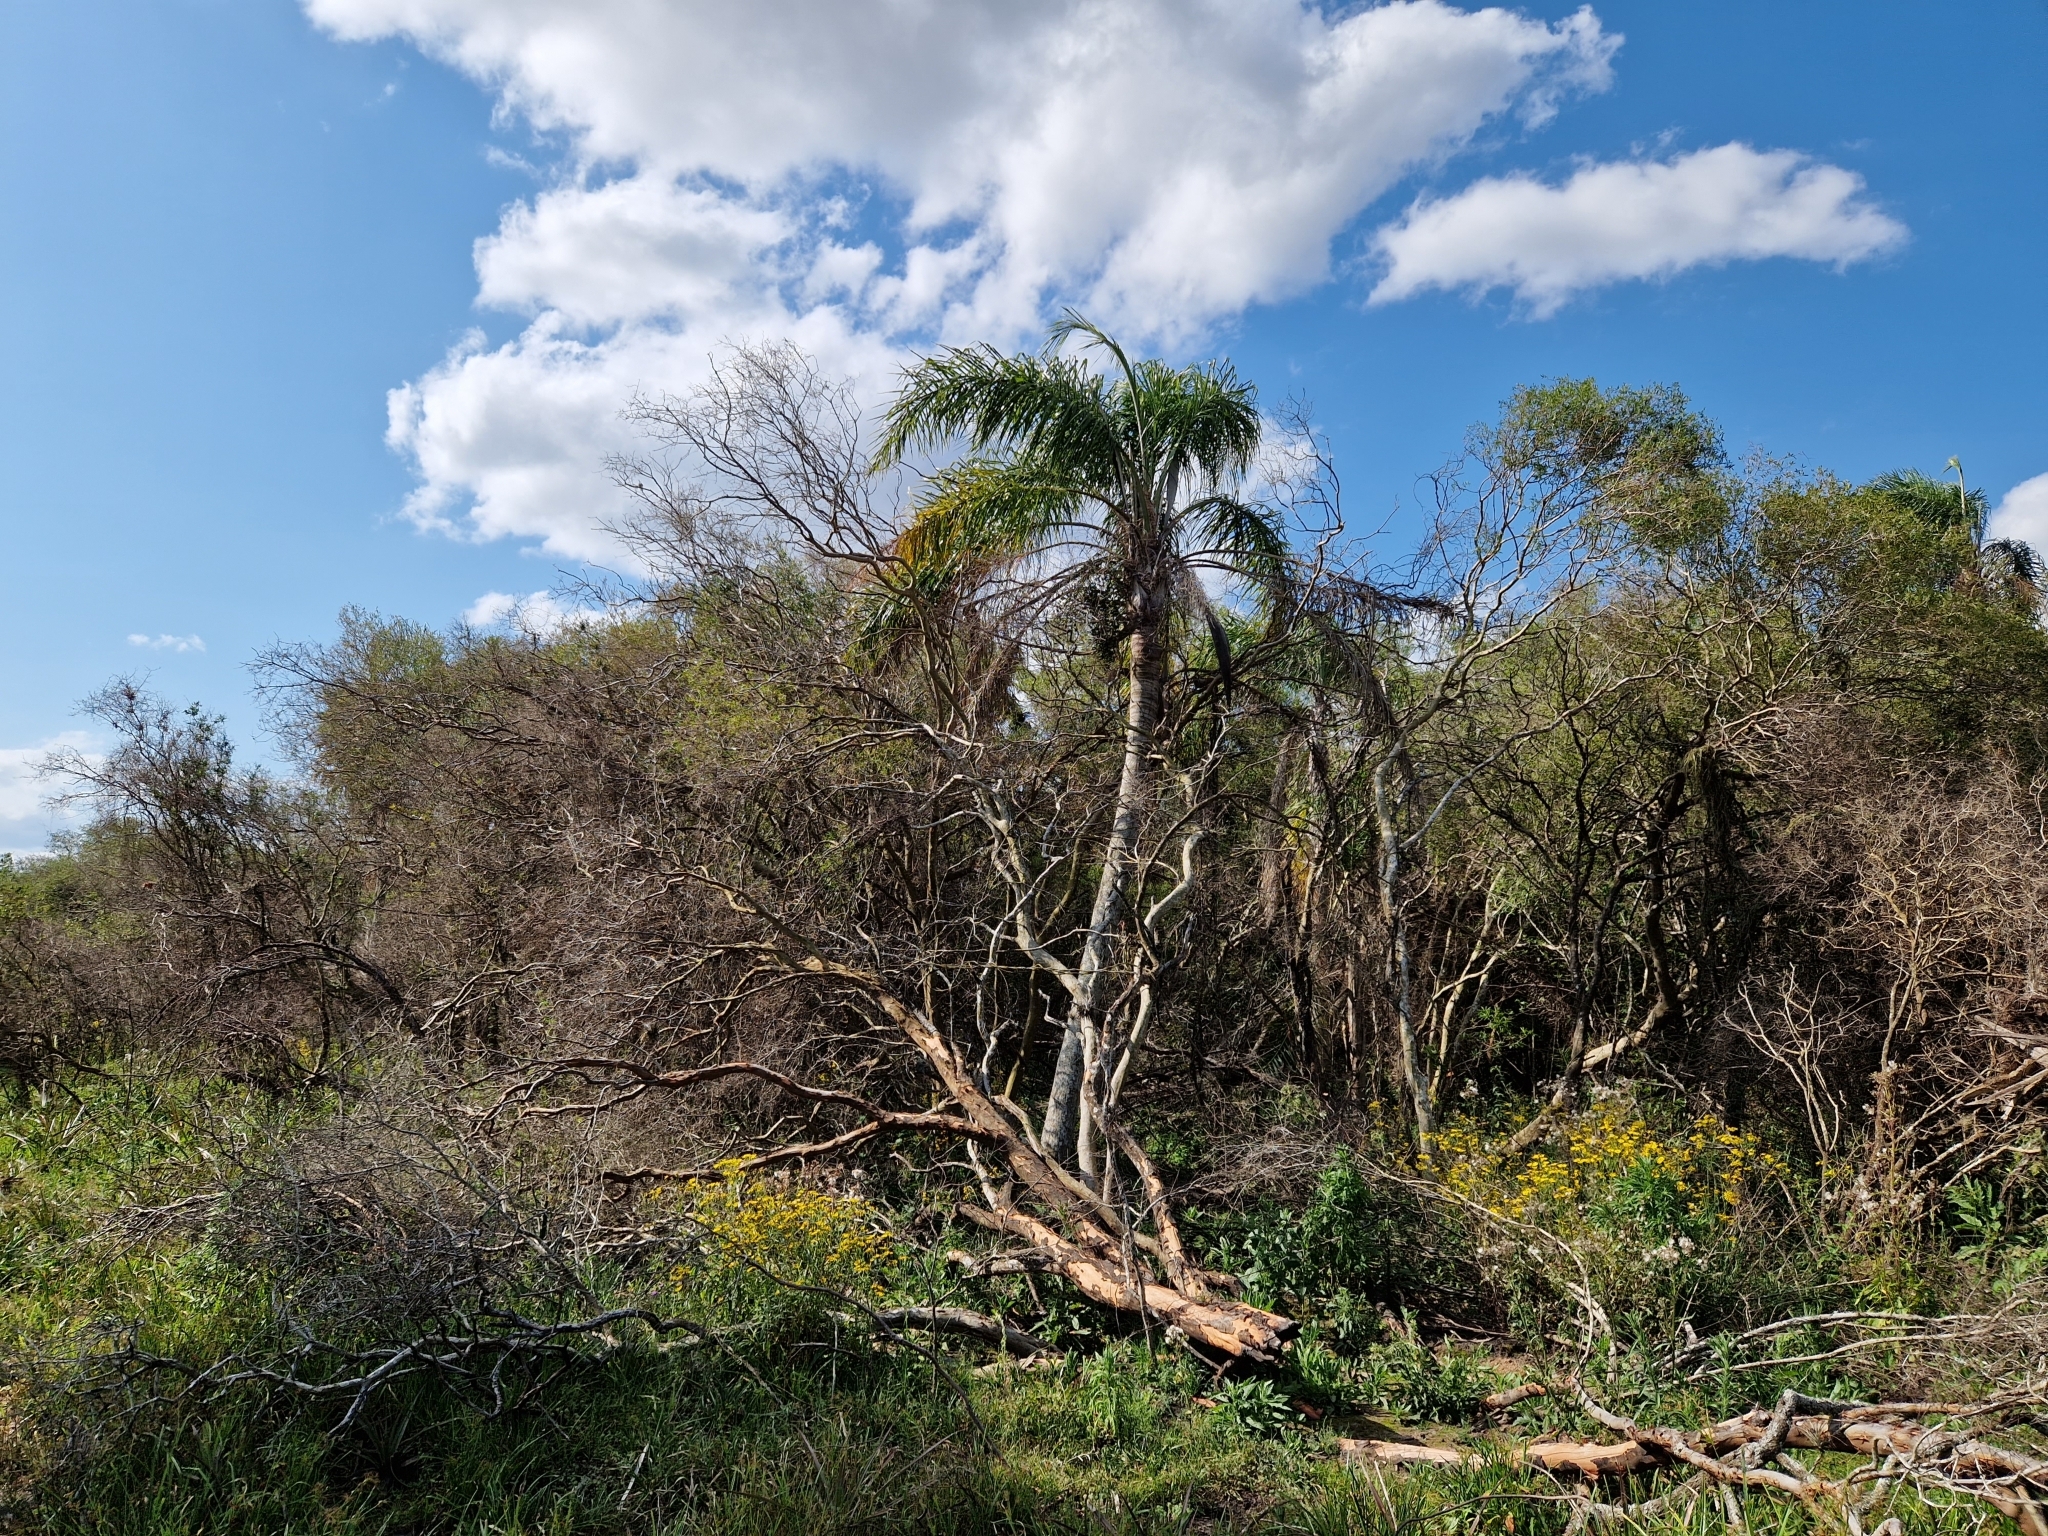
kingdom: Plantae
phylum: Tracheophyta
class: Liliopsida
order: Arecales
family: Arecaceae
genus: Syagrus
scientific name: Syagrus romanzoffiana
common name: Queen palm
